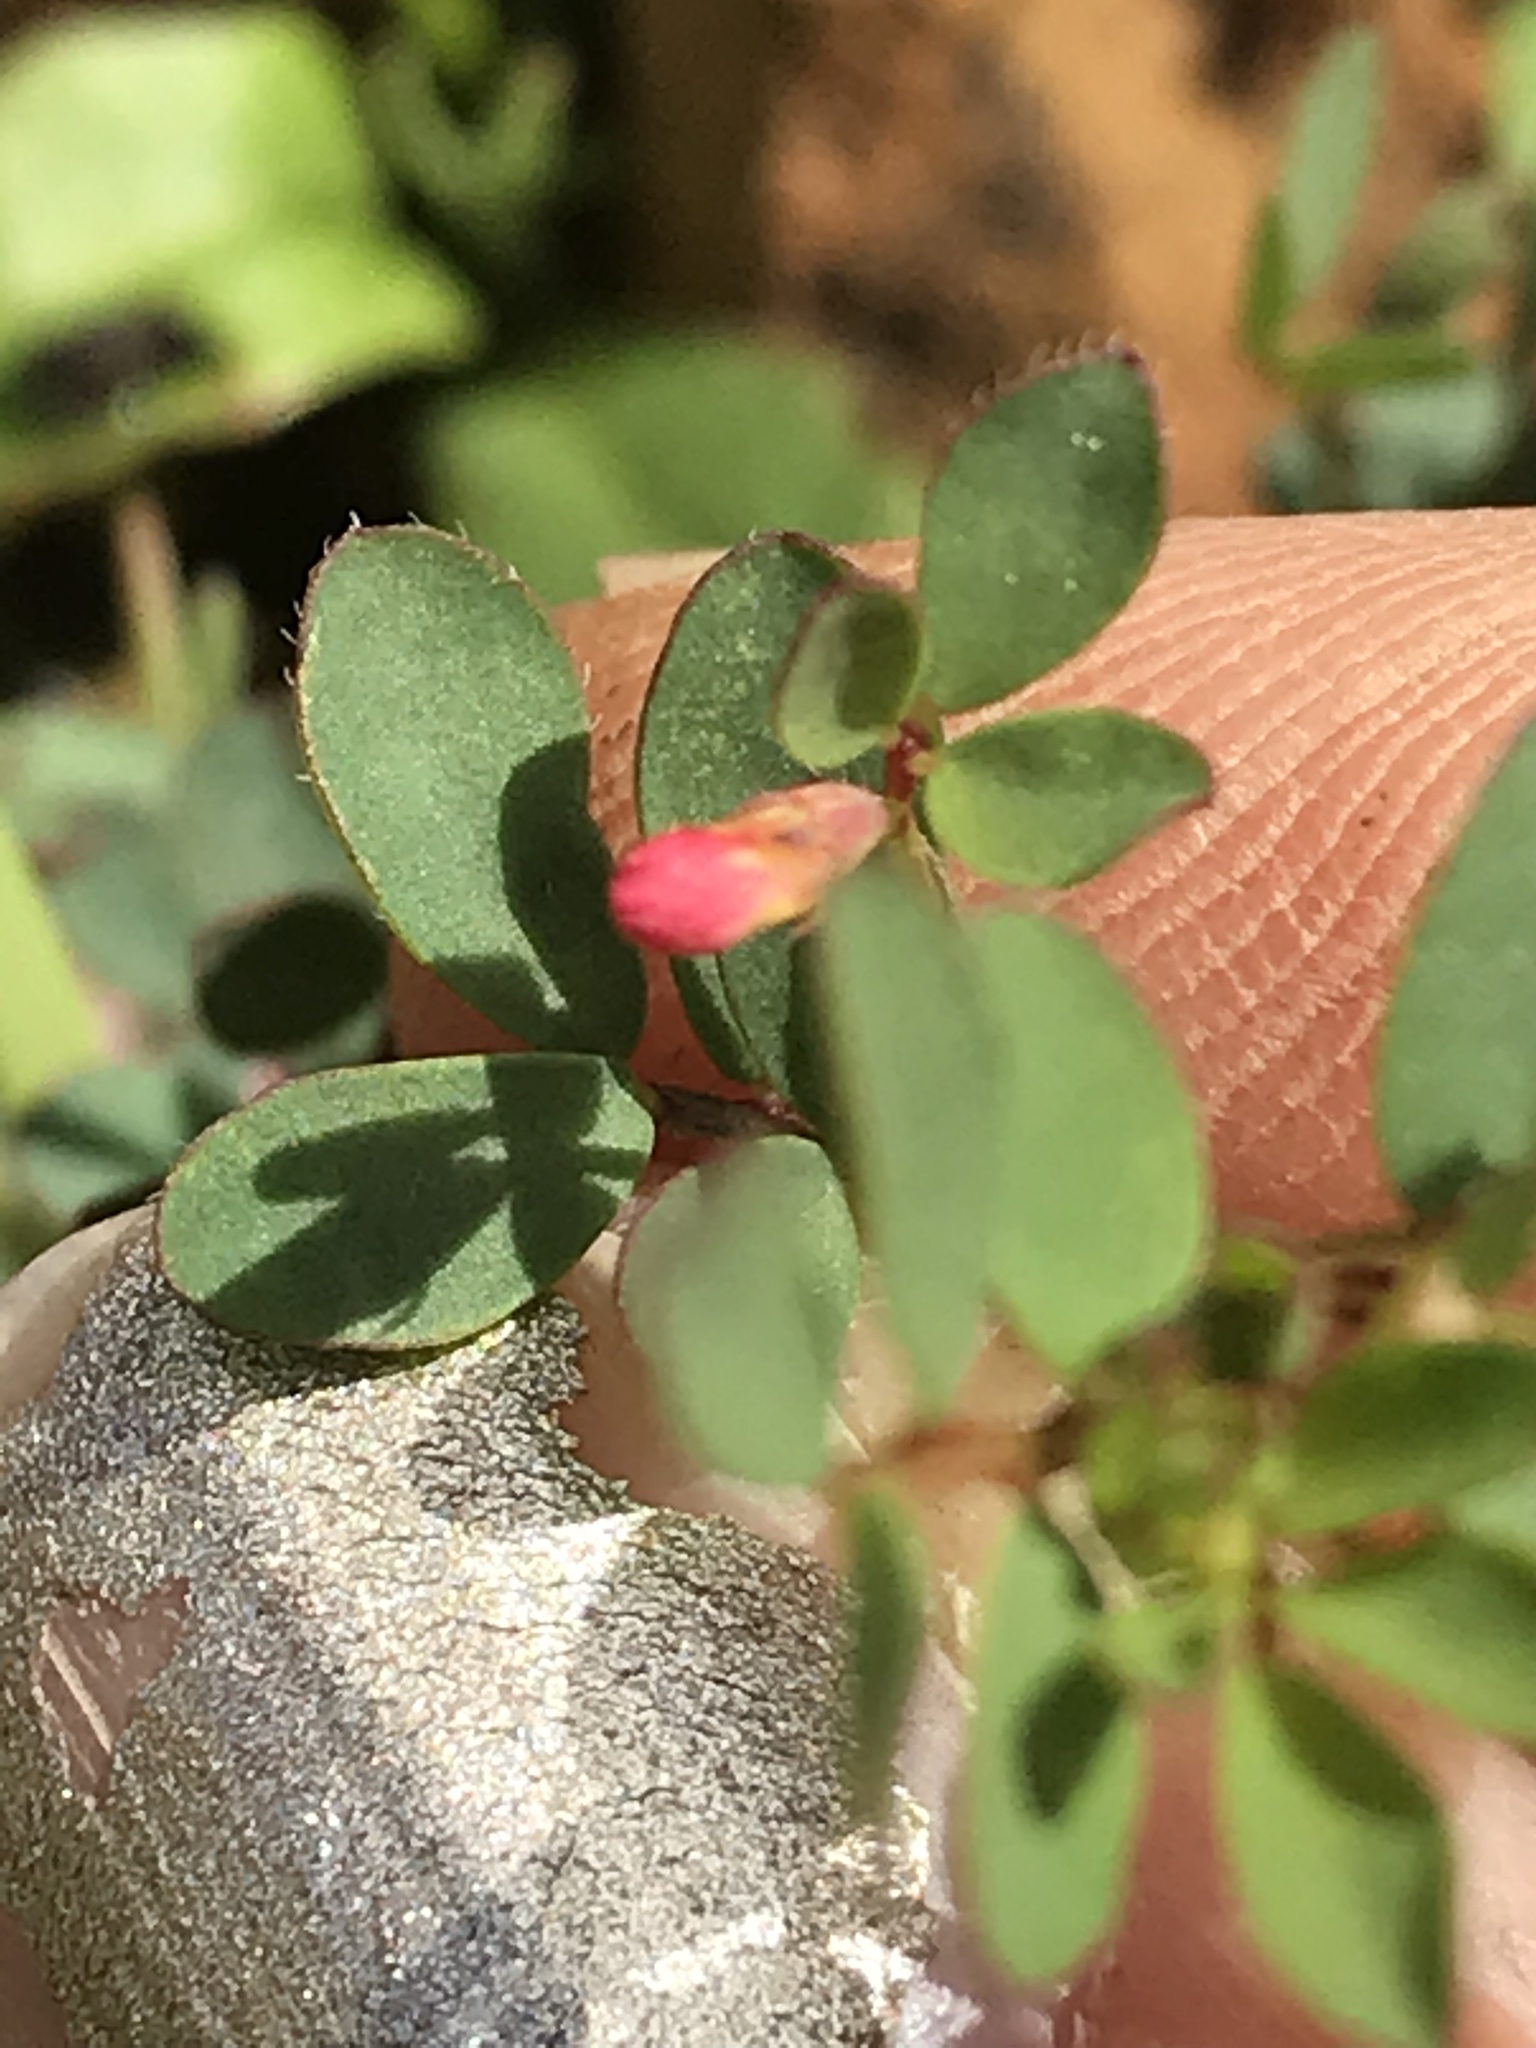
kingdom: Plantae
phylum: Tracheophyta
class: Magnoliopsida
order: Fabales
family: Fabaceae
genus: Acmispon
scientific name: Acmispon parviflorus
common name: Desert deer-vetch
